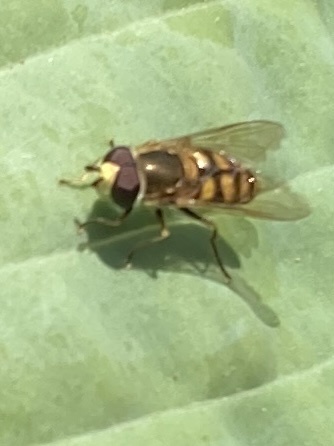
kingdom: Animalia
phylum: Arthropoda
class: Insecta
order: Diptera
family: Syrphidae
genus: Eupeodes
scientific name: Eupeodes corollae
